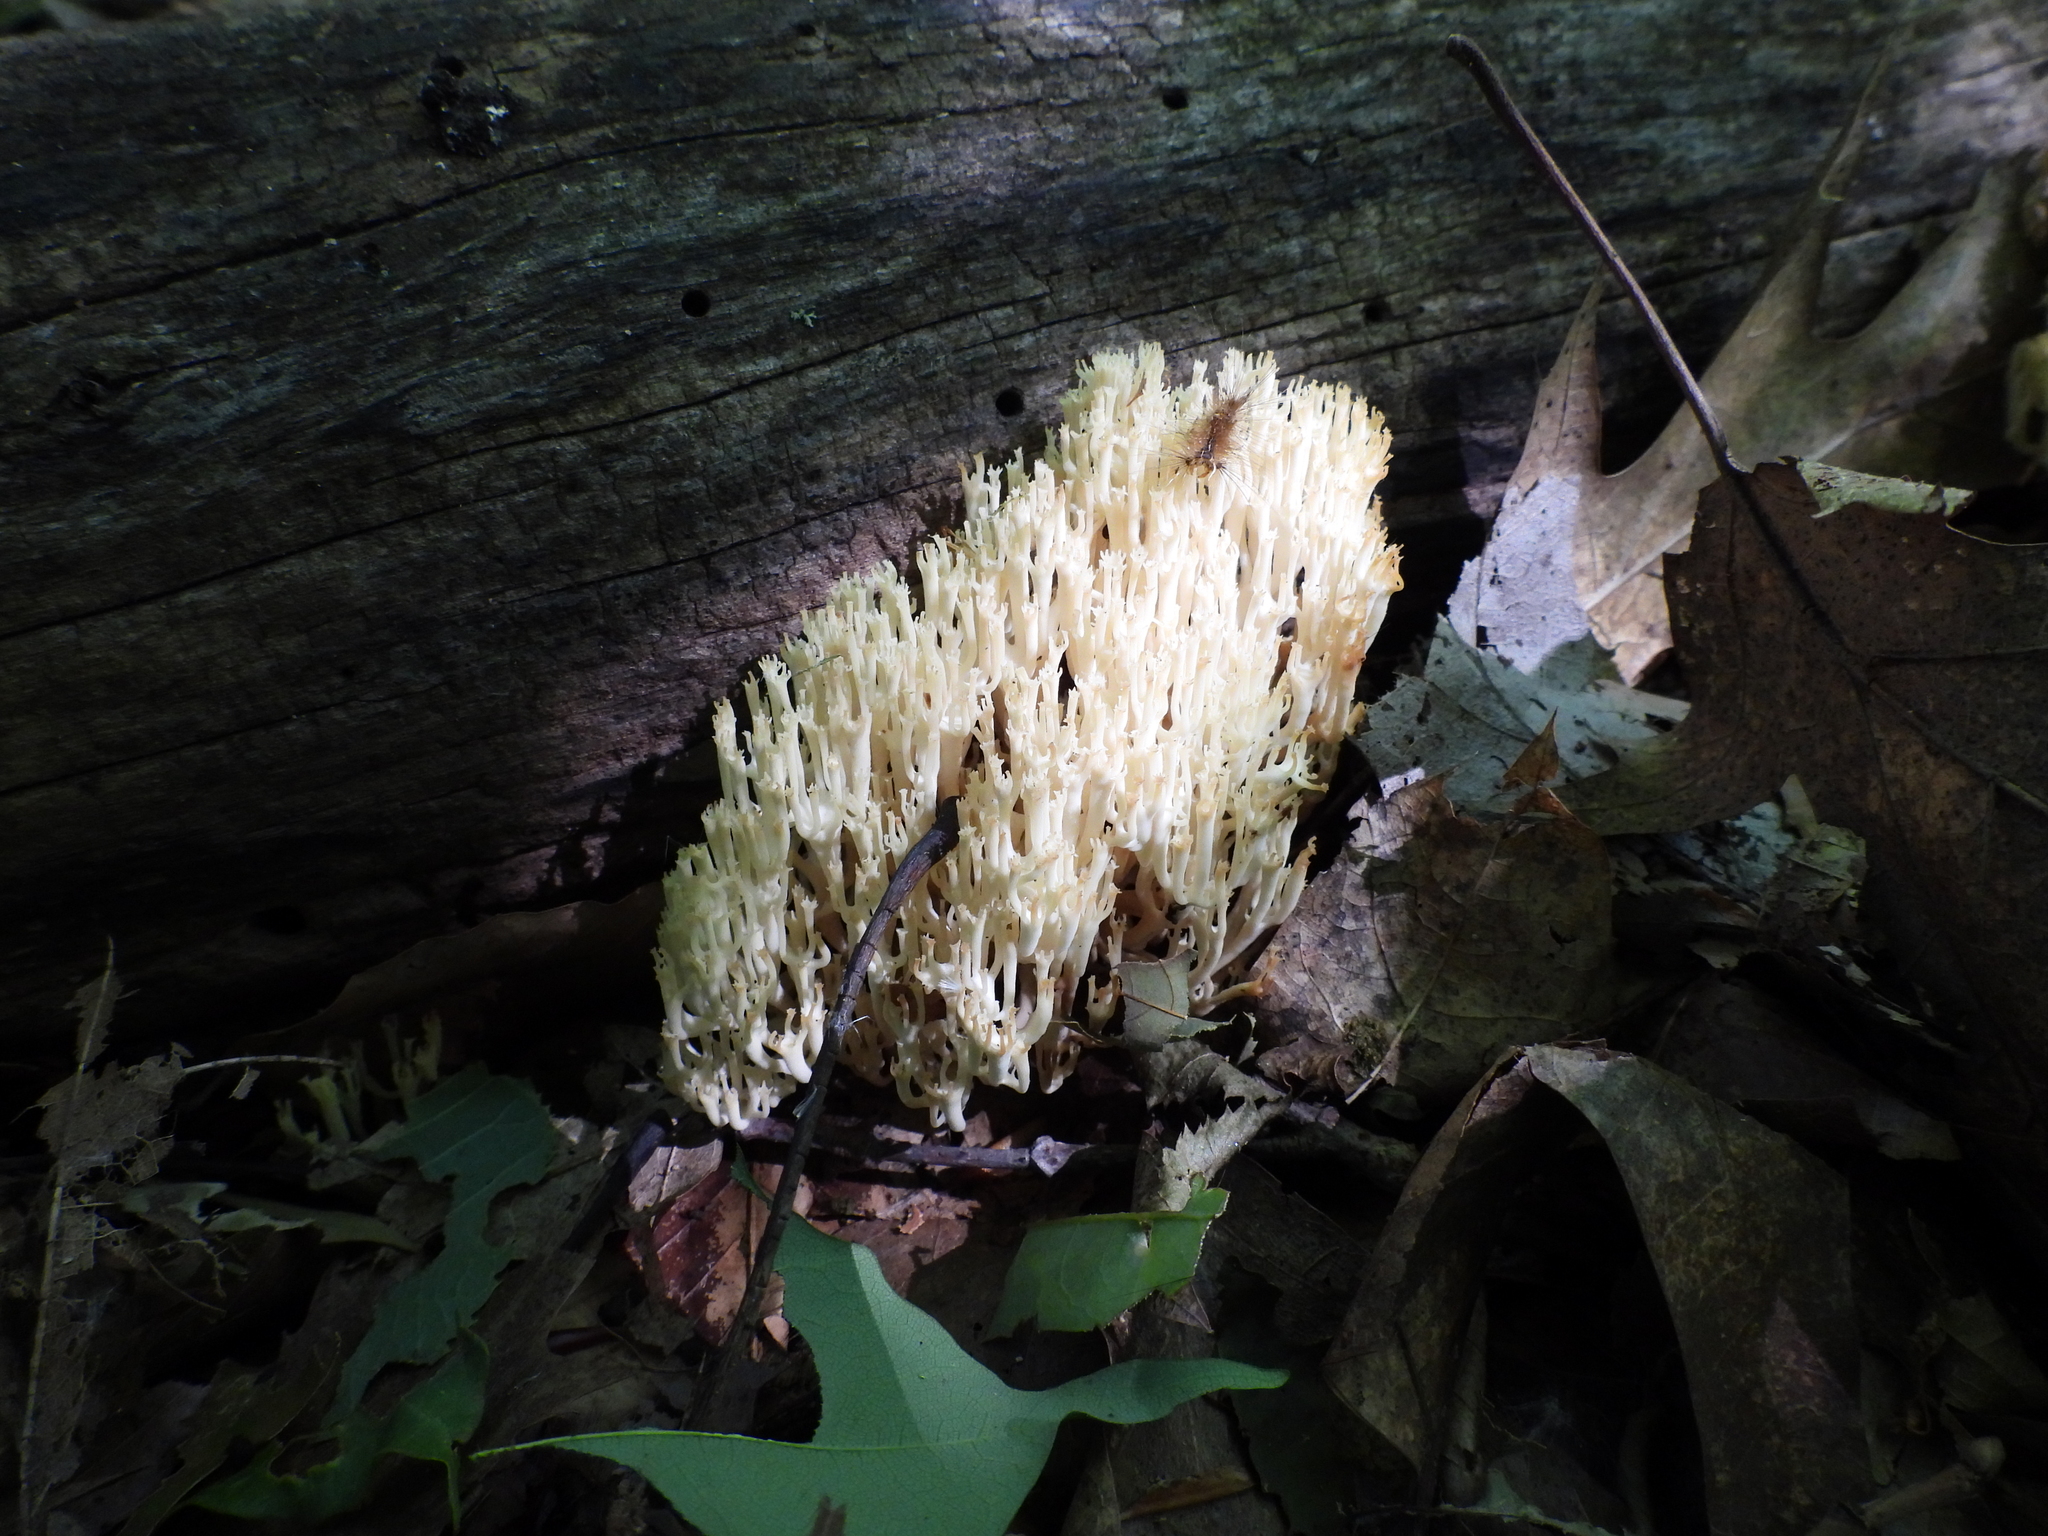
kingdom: Fungi
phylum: Basidiomycota
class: Agaricomycetes
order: Russulales
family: Auriscalpiaceae
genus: Artomyces
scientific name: Artomyces pyxidatus
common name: Crown-tipped coral fungus
